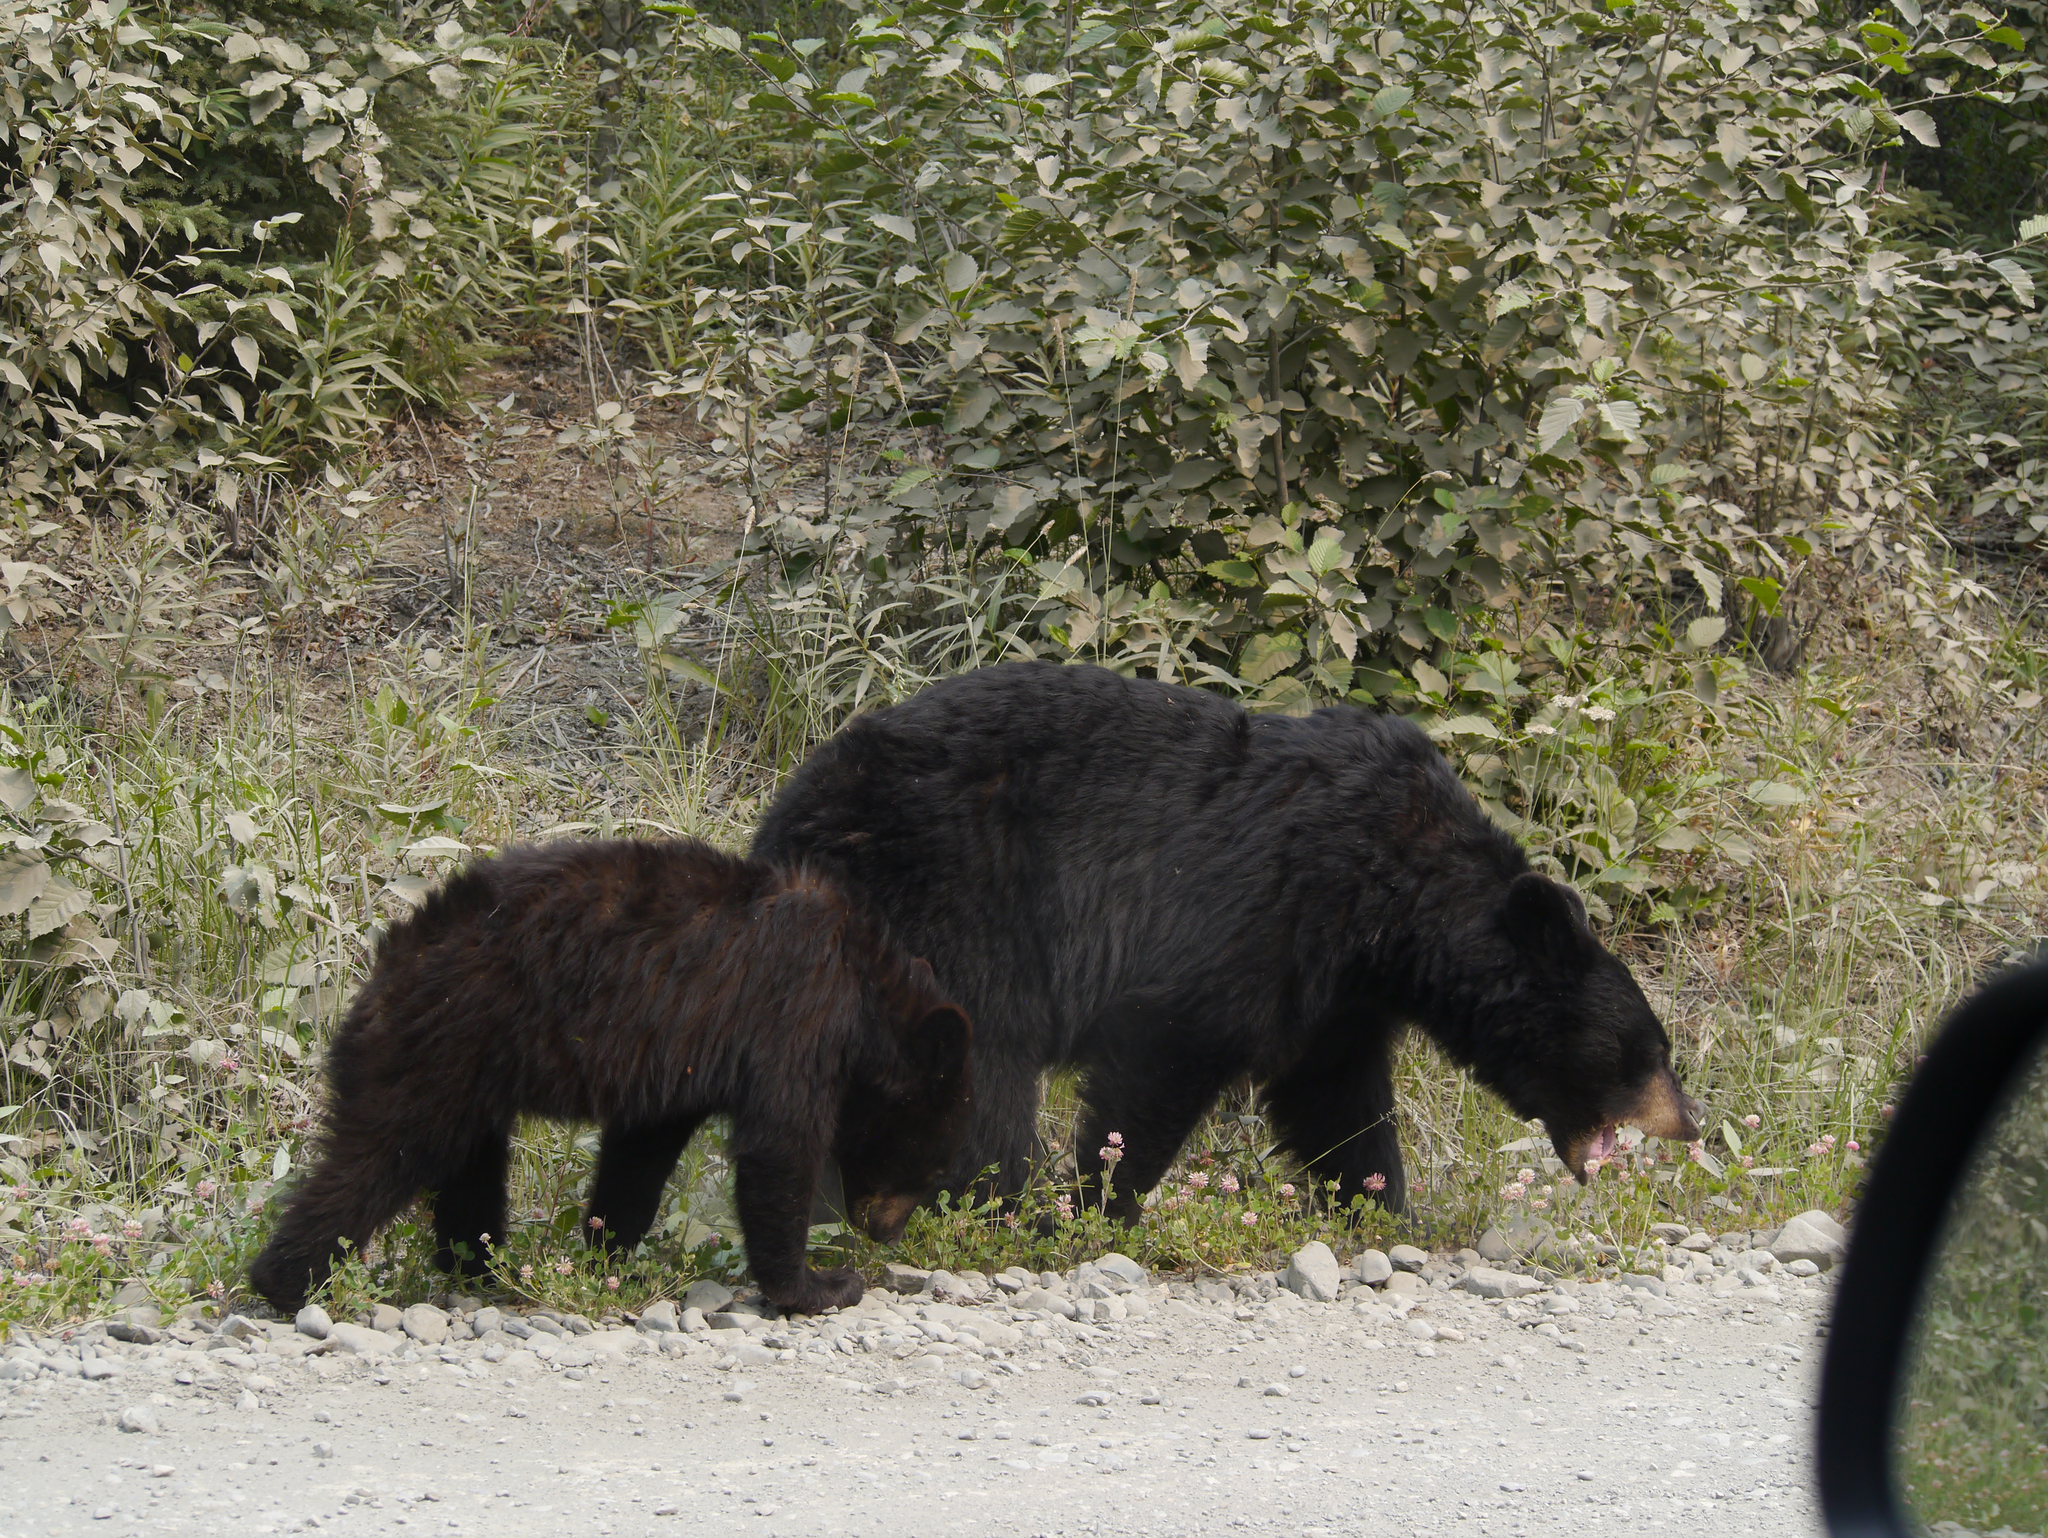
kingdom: Animalia
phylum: Chordata
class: Mammalia
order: Carnivora
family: Ursidae
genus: Ursus
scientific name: Ursus americanus
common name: American black bear
